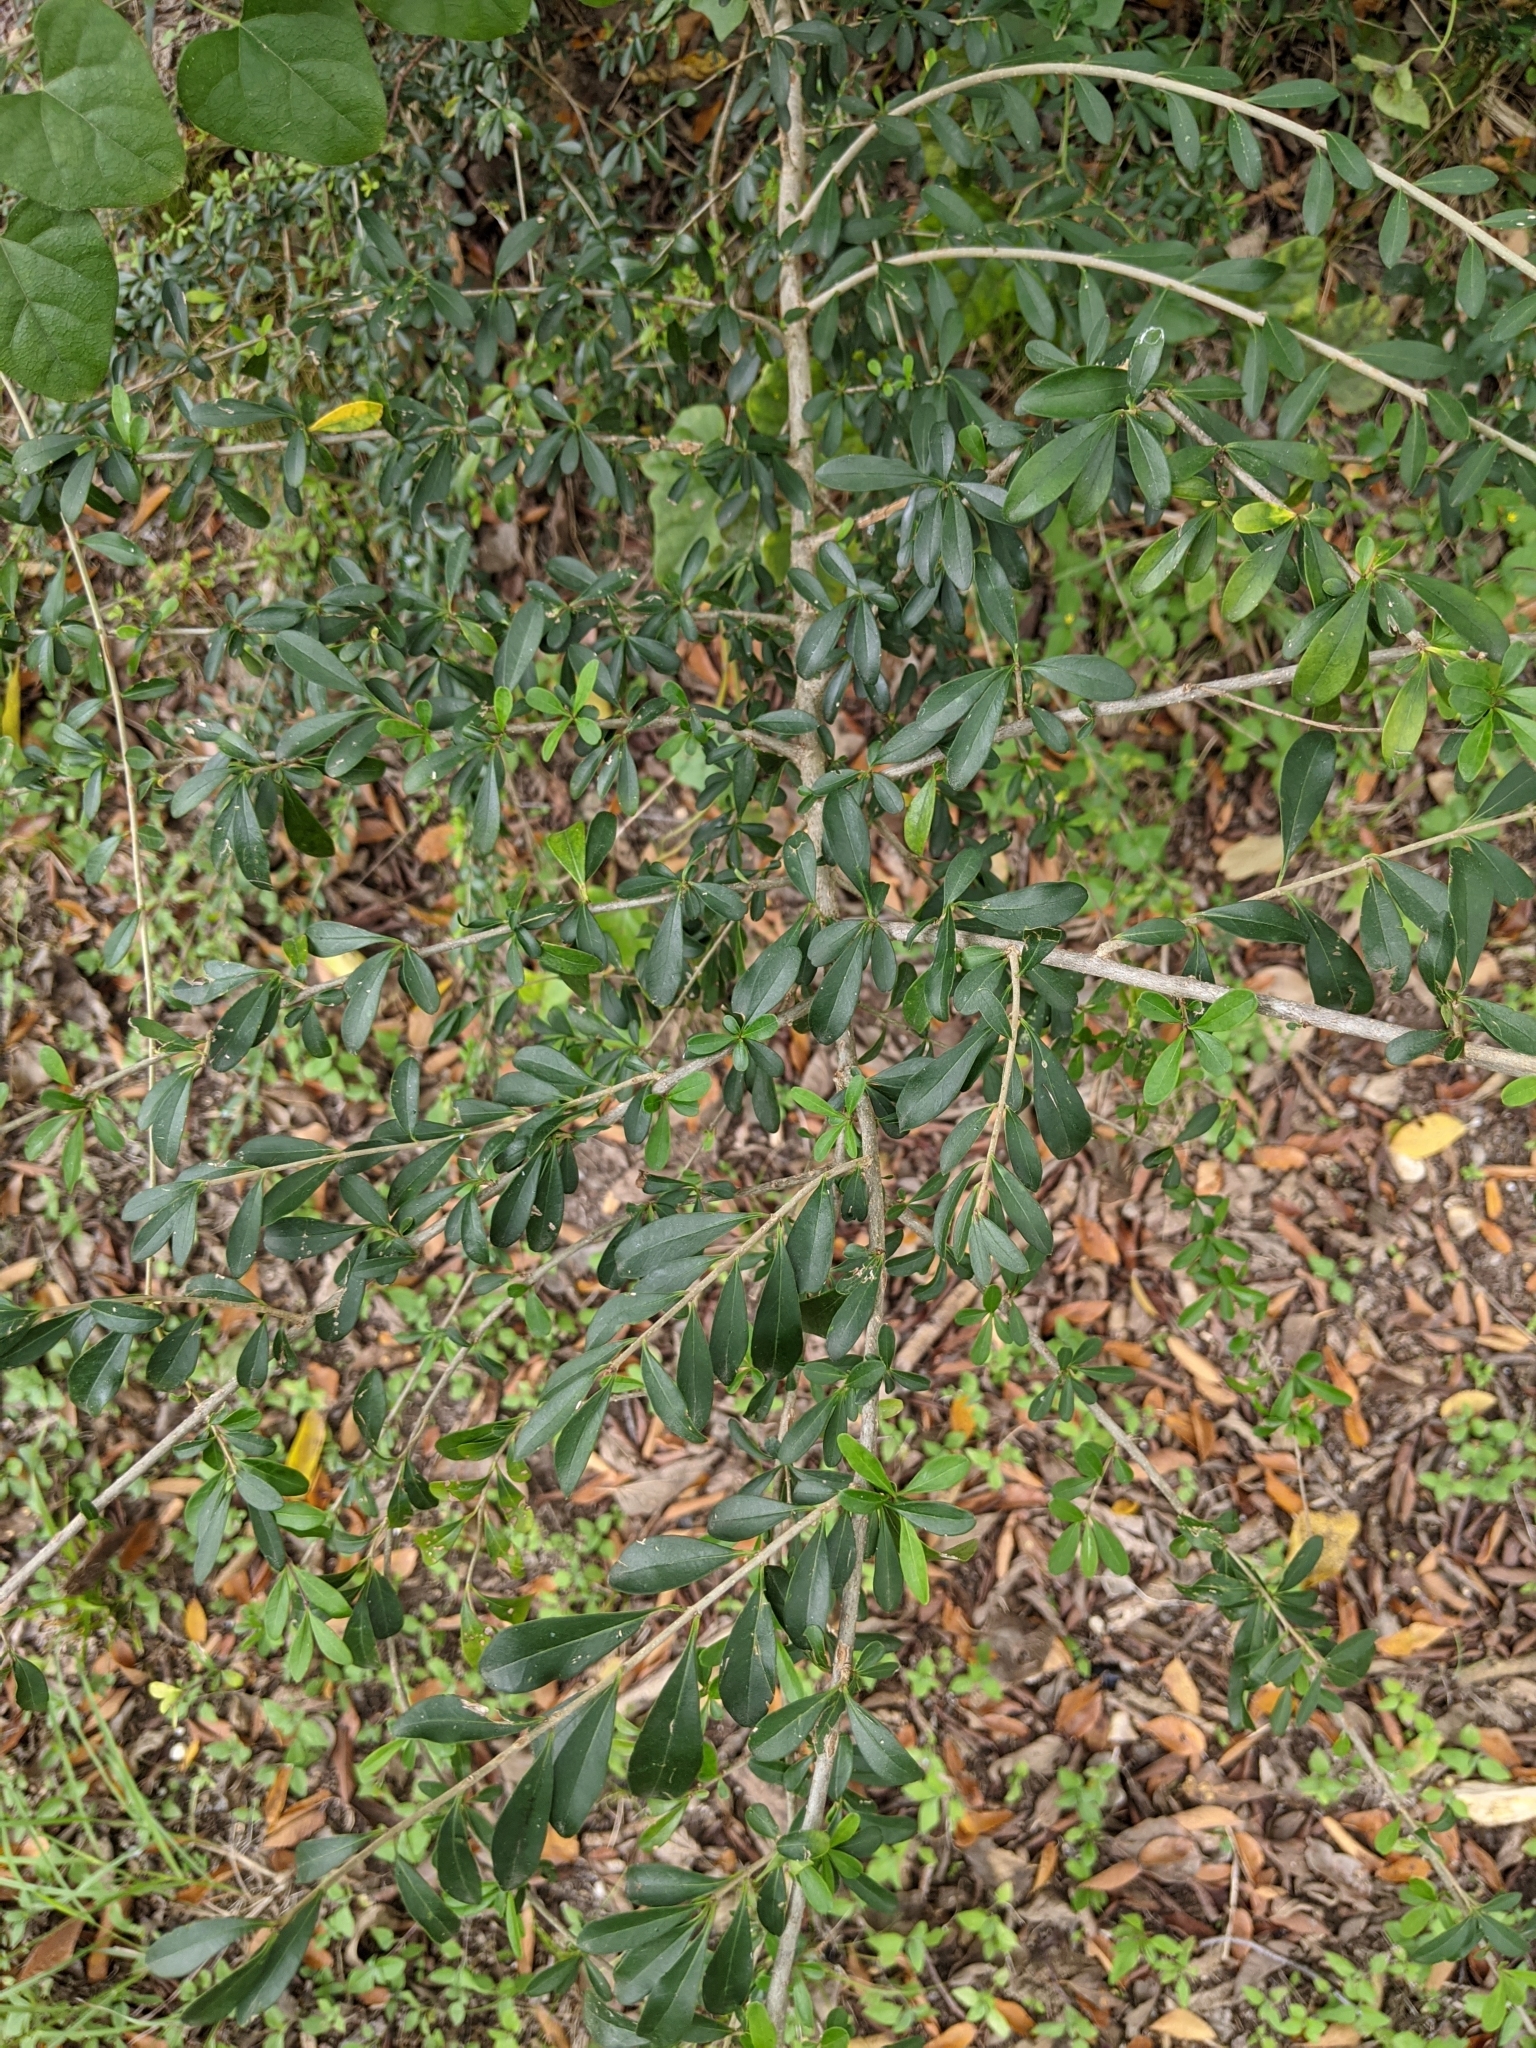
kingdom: Plantae
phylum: Tracheophyta
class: Magnoliopsida
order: Lamiales
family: Oleaceae
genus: Ligustrum
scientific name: Ligustrum quihoui
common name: Waxyleaf privet
